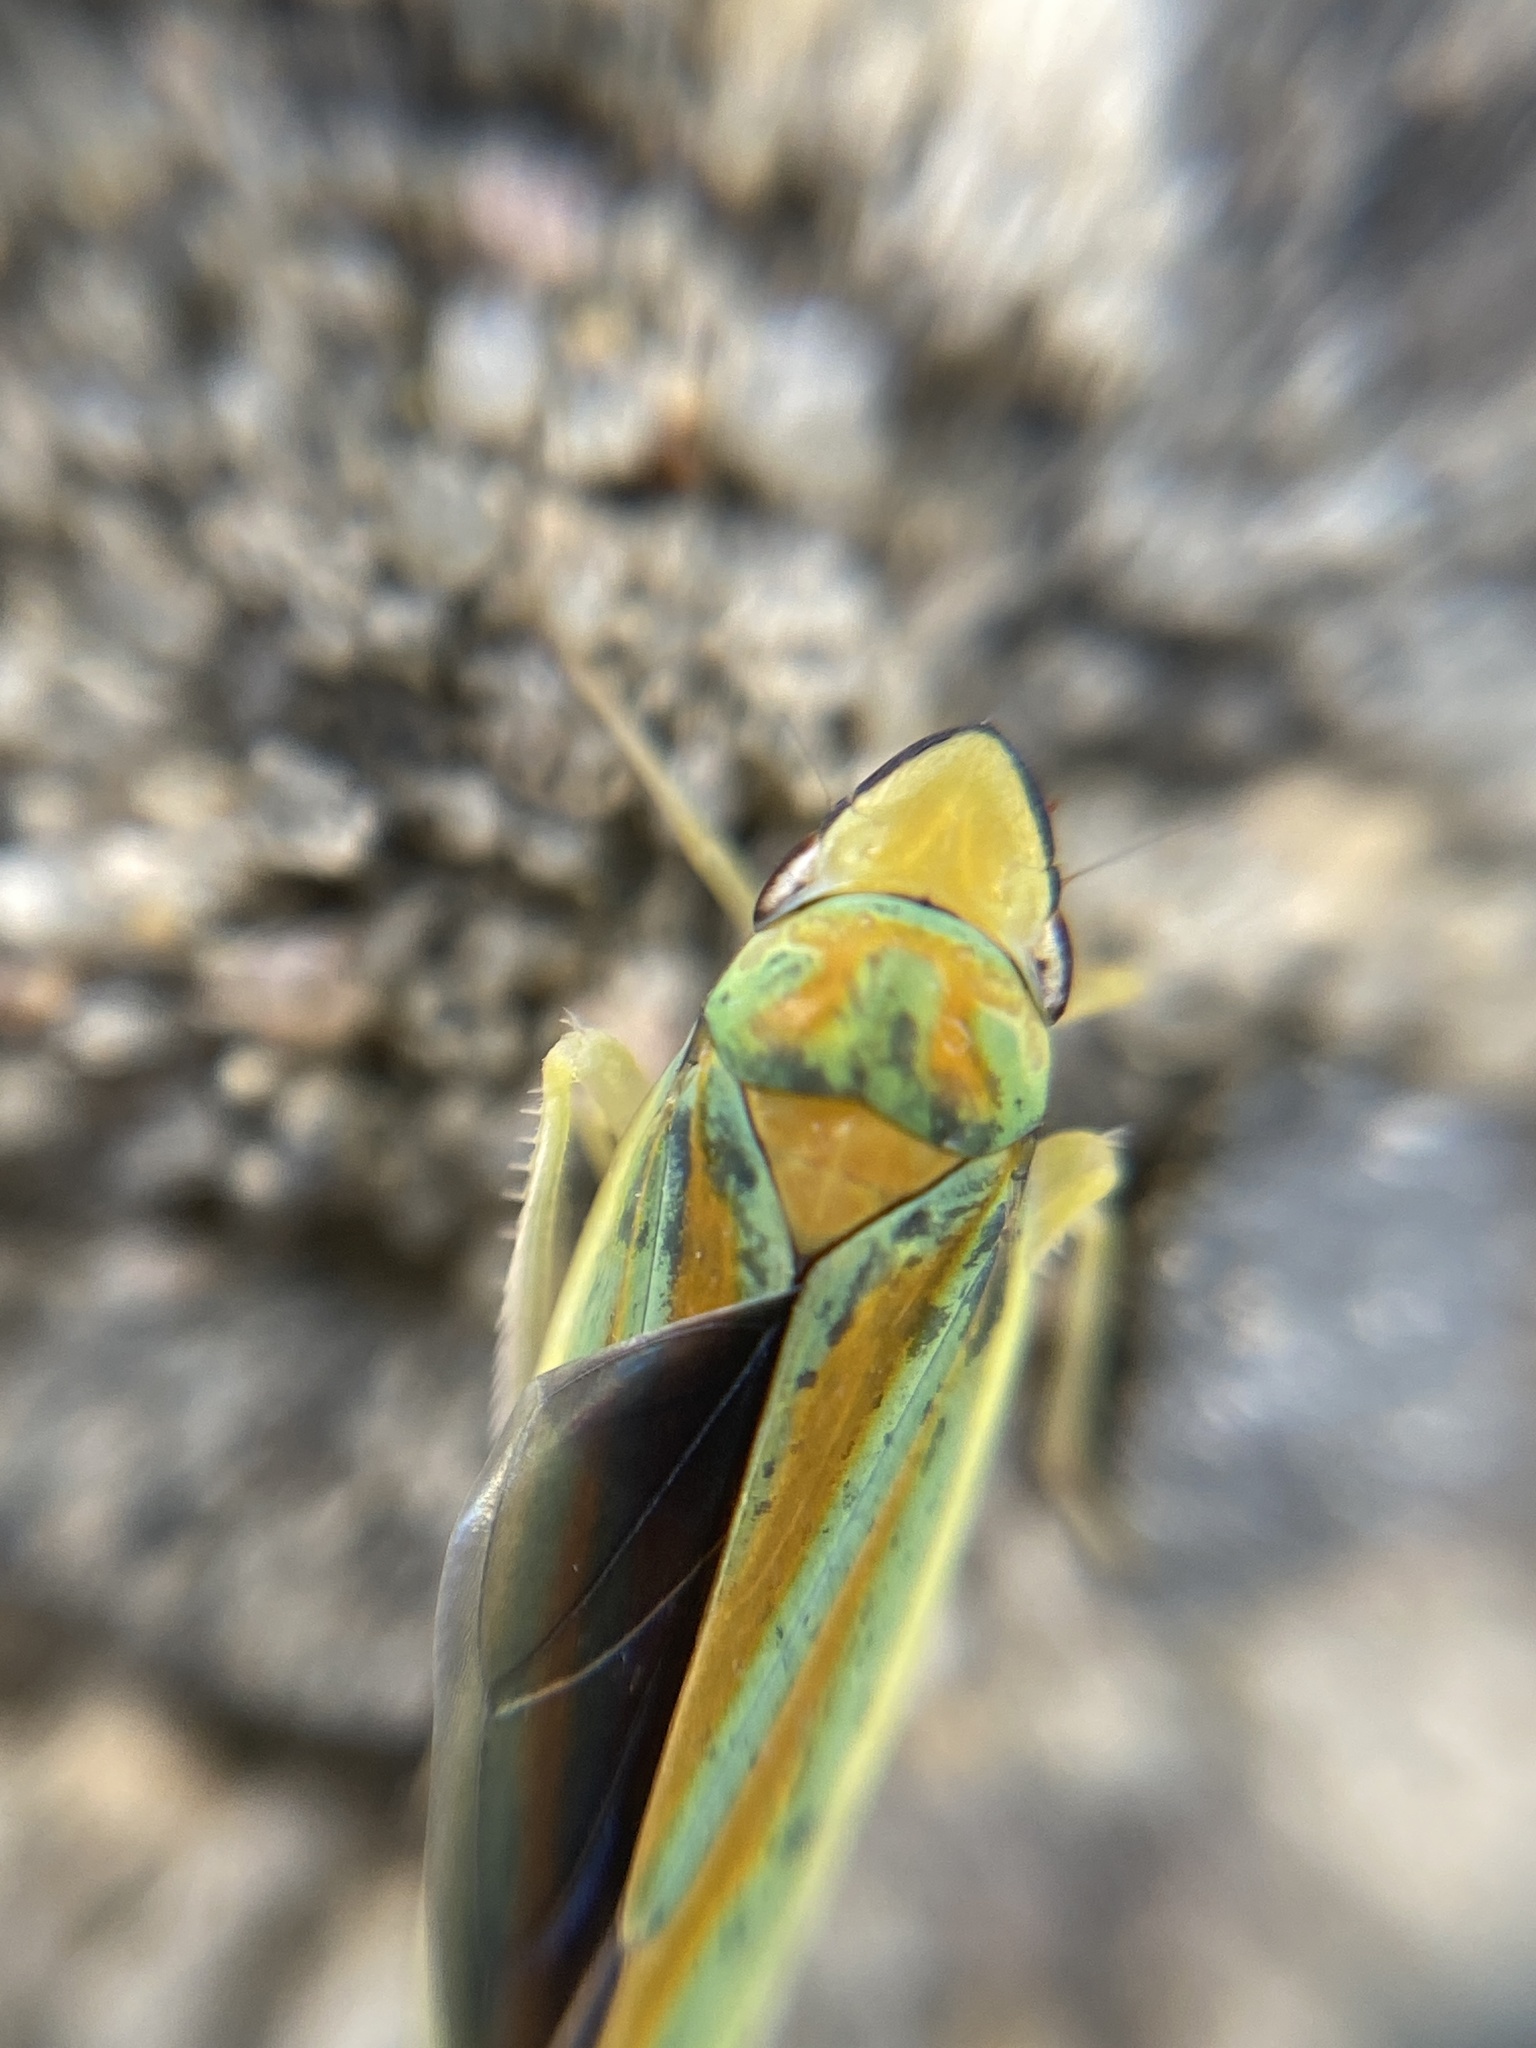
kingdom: Animalia
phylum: Arthropoda
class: Insecta
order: Hemiptera
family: Cicadellidae
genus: Graphocephala
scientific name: Graphocephala fennahi
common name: Rhododendron leafhopper
